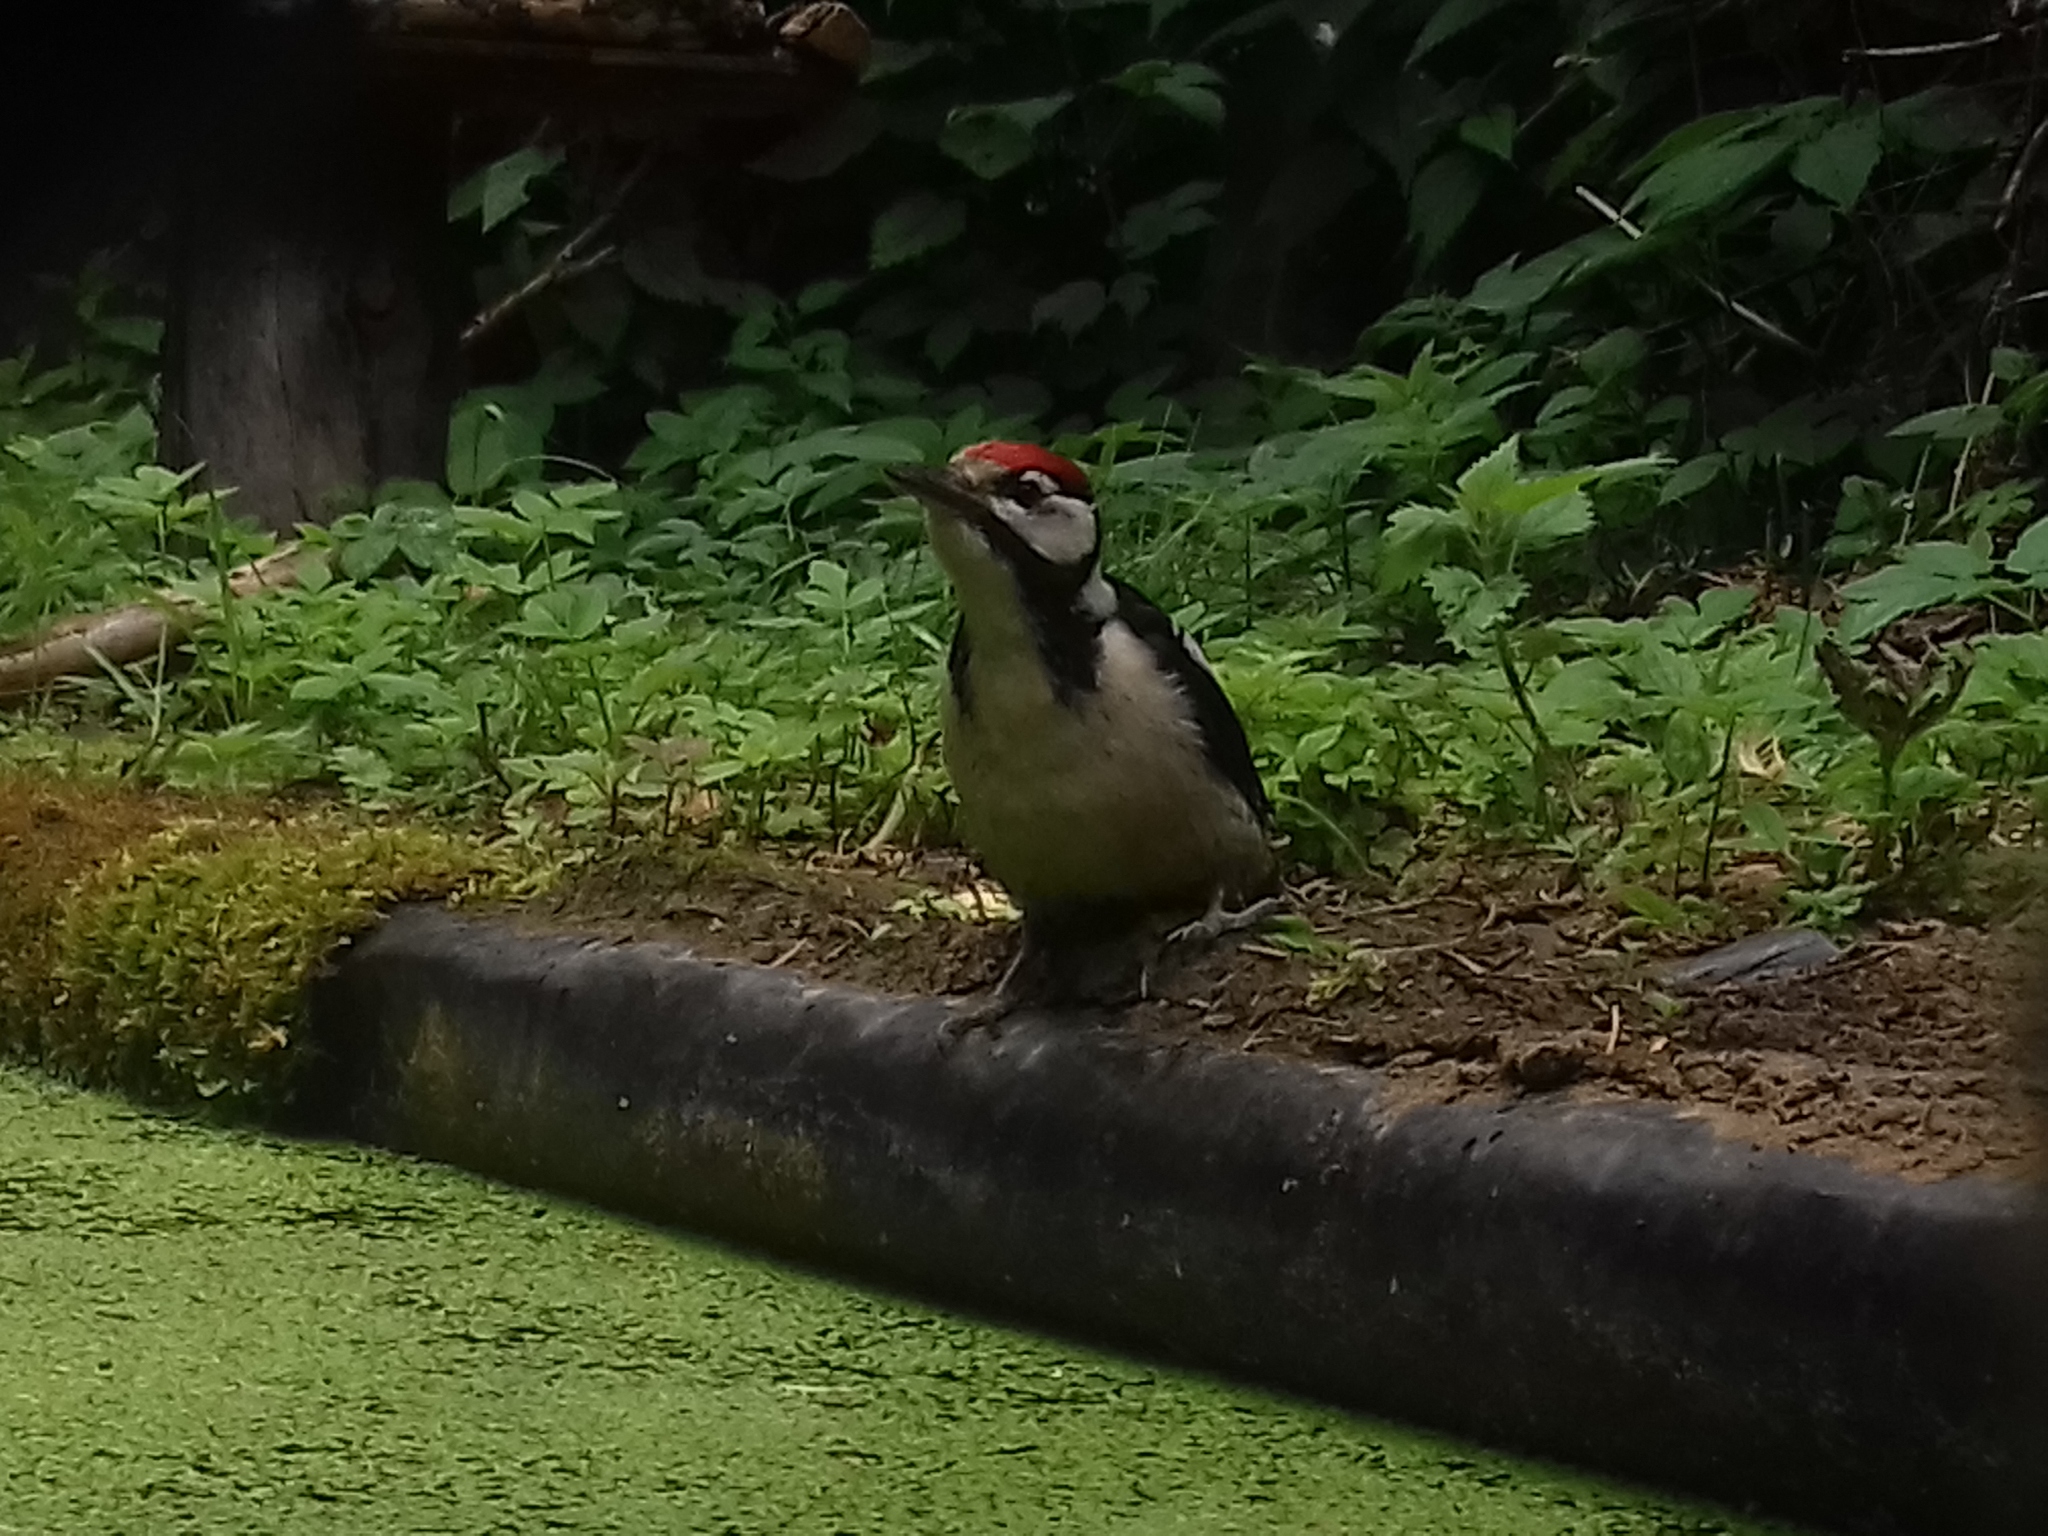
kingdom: Animalia
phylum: Chordata
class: Aves
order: Piciformes
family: Picidae
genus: Dendrocopos
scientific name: Dendrocopos major
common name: Great spotted woodpecker
